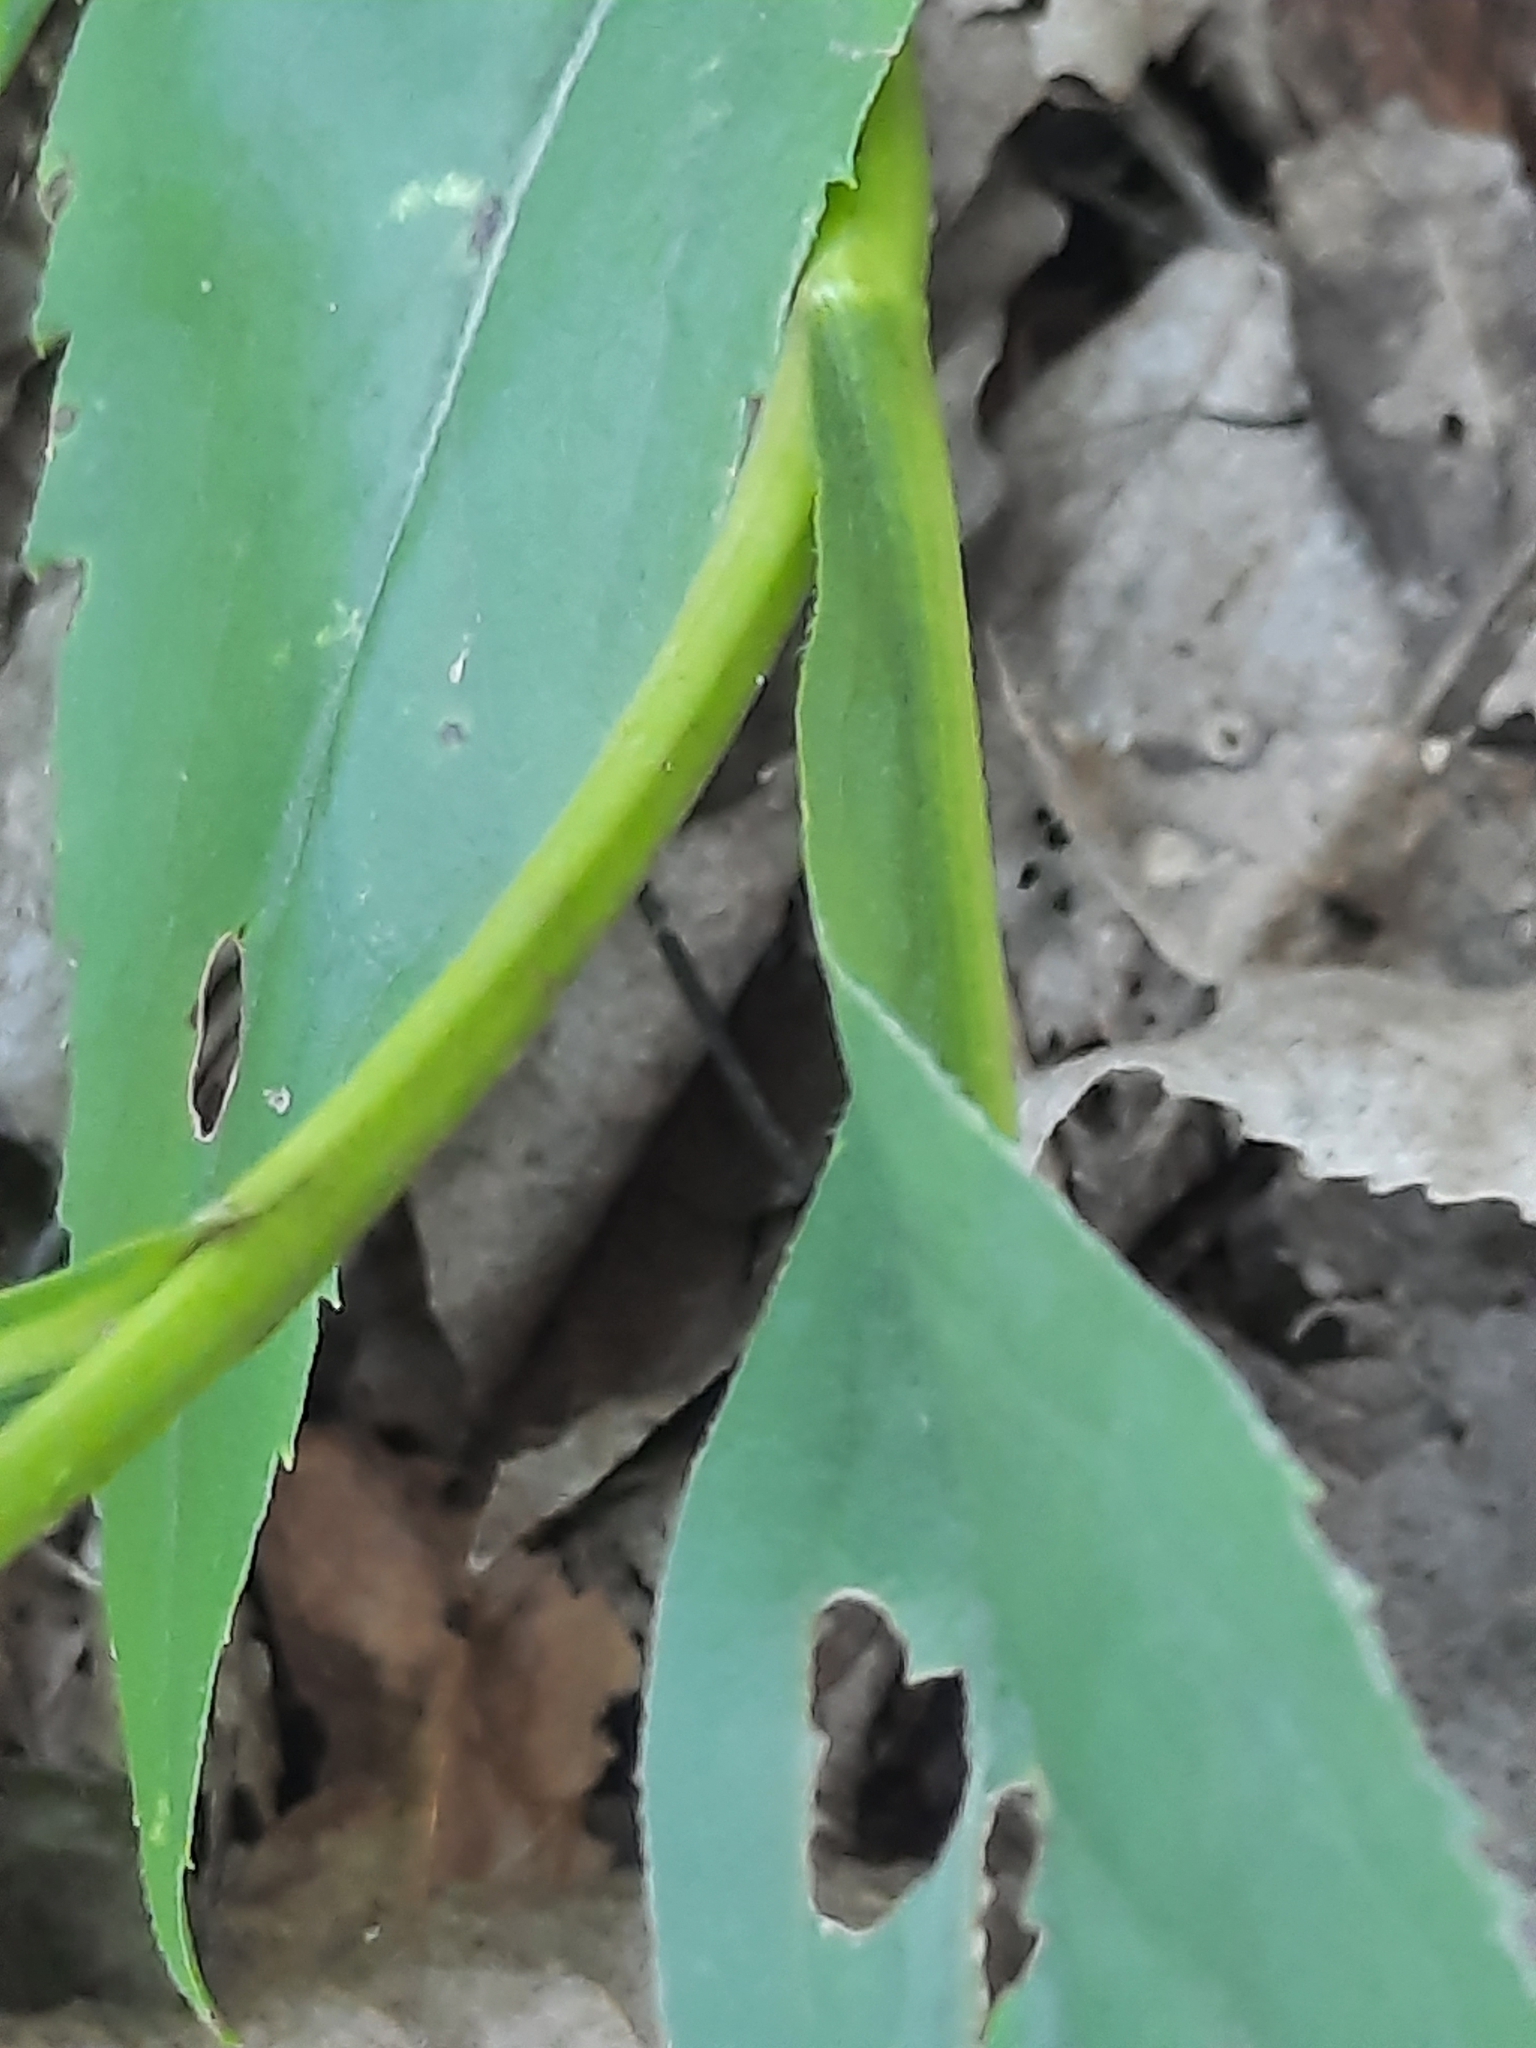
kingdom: Plantae
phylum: Tracheophyta
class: Magnoliopsida
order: Asterales
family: Asteraceae
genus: Solidago
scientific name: Solidago juncea
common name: Early goldenrod
